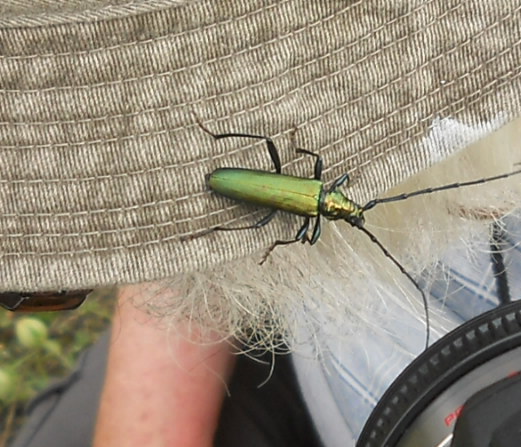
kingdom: Animalia
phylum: Arthropoda
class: Insecta
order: Coleoptera
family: Cerambycidae
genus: Aromia
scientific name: Aromia moschata
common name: Musk beetle
